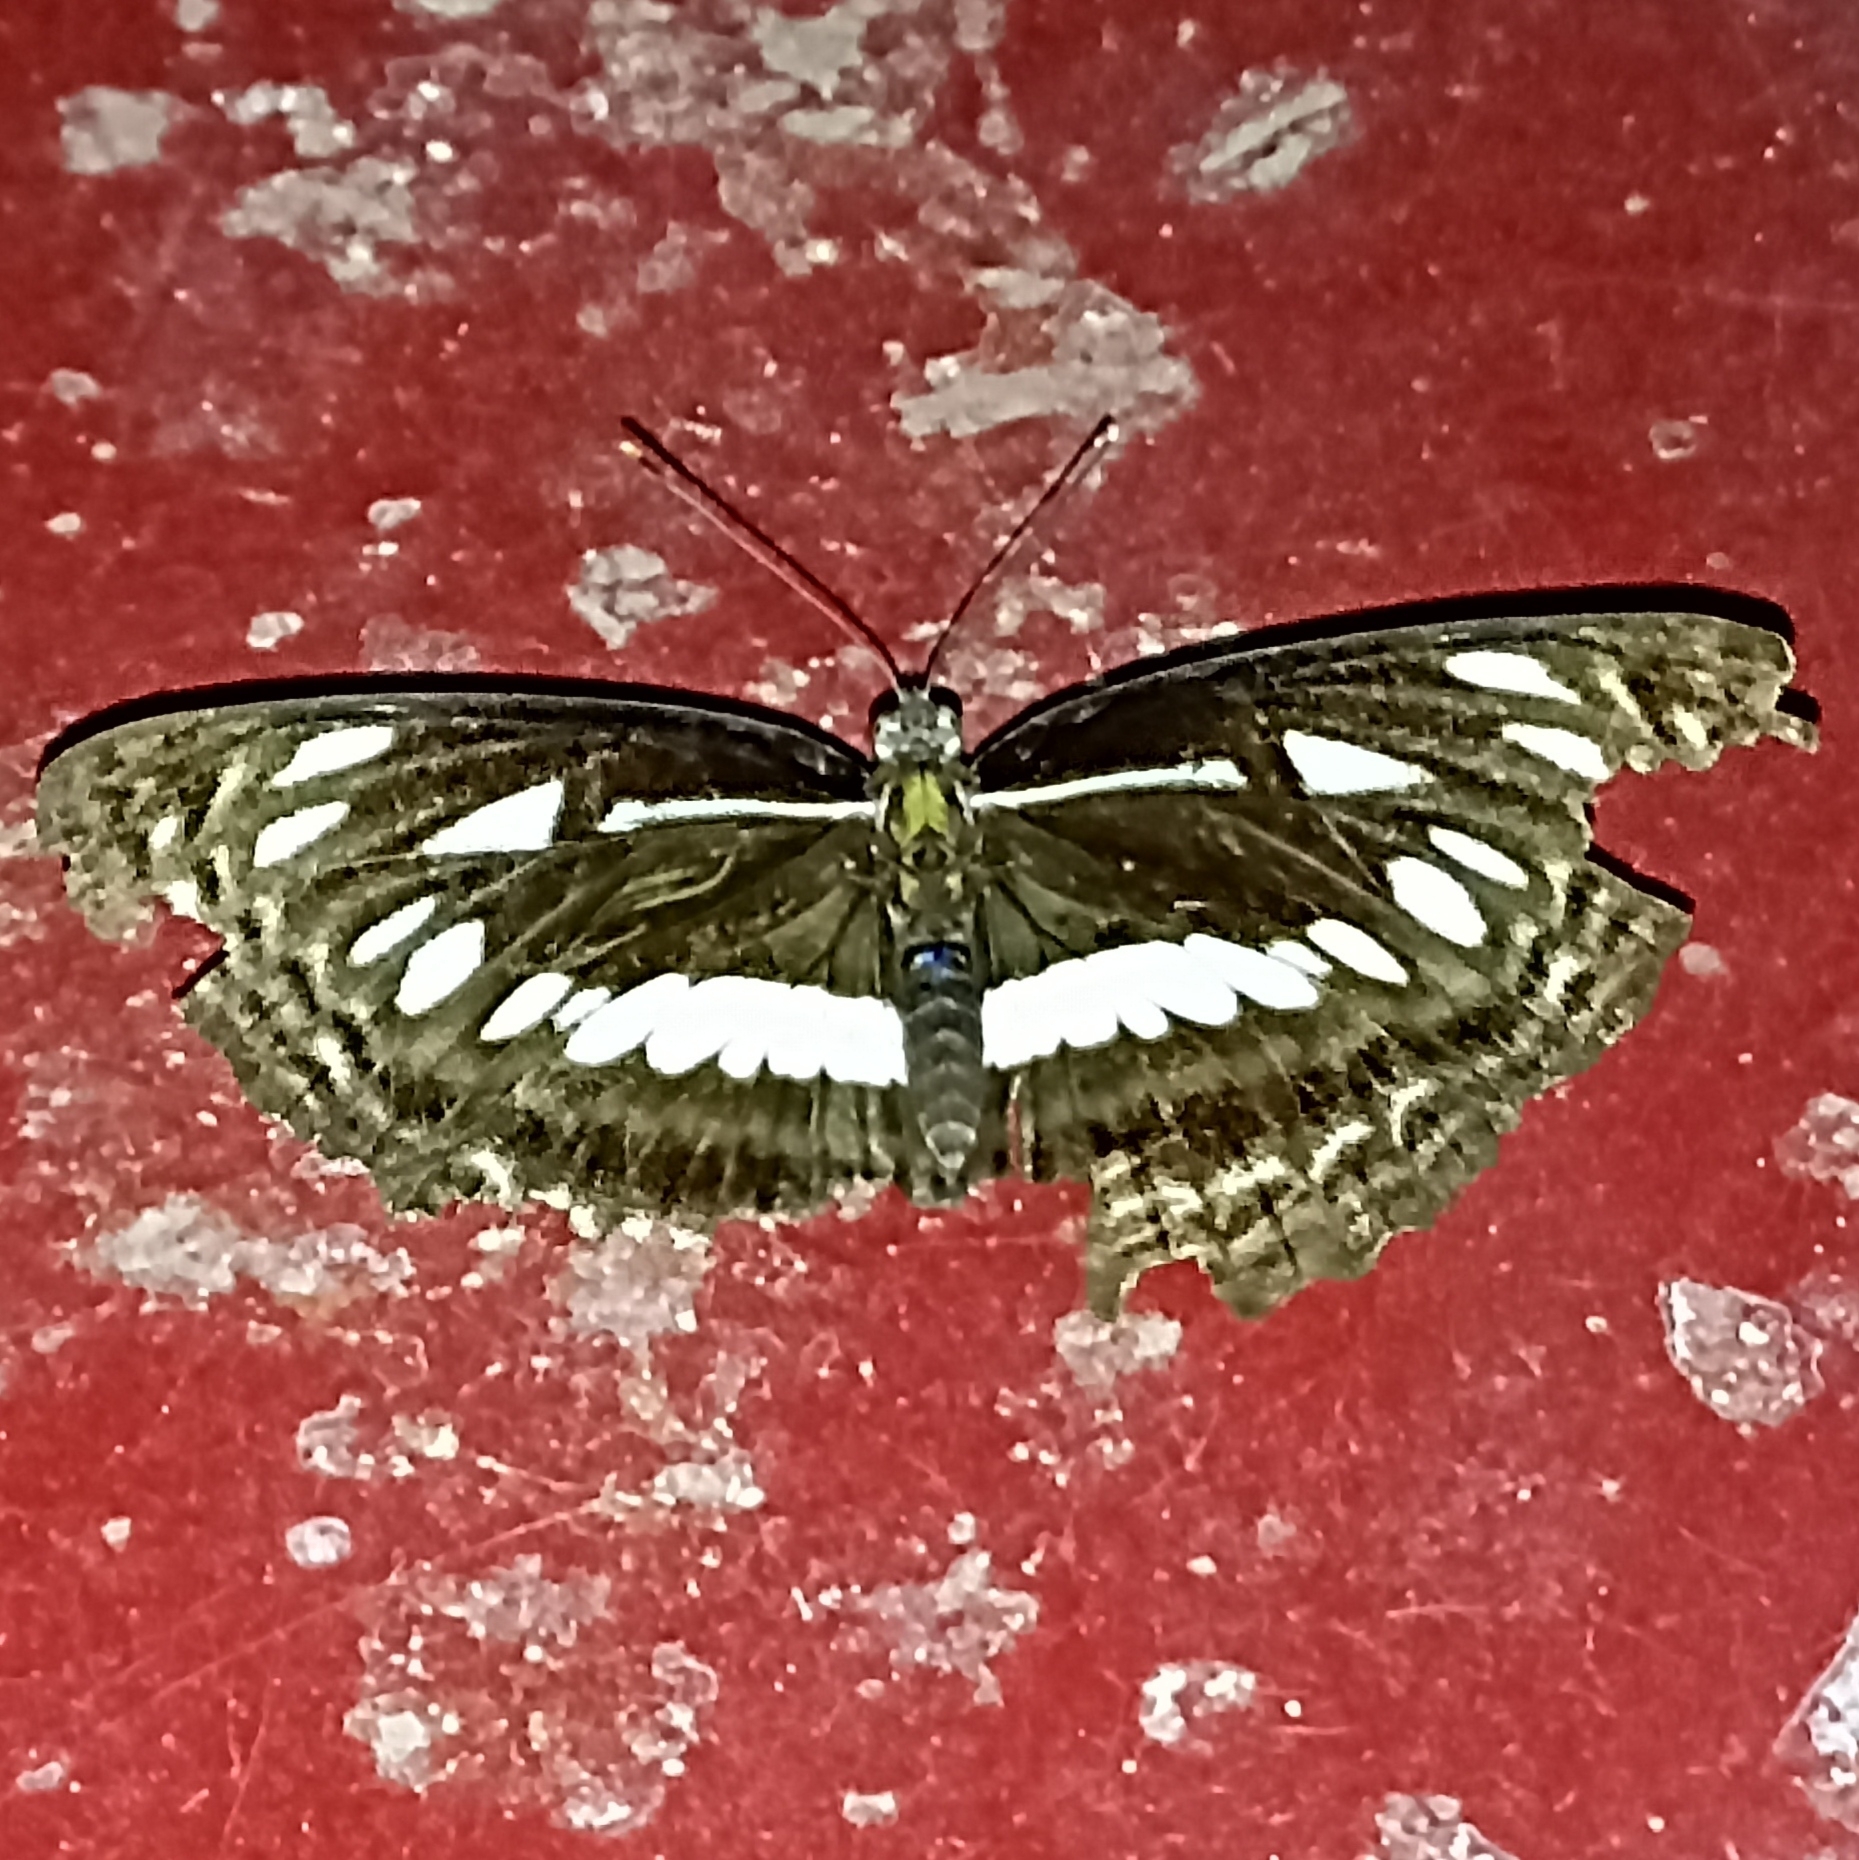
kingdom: Animalia
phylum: Arthropoda
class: Insecta
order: Lepidoptera
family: Nymphalidae
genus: Neptis
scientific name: Neptis jumbah
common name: Chestnut-streaked sailer
